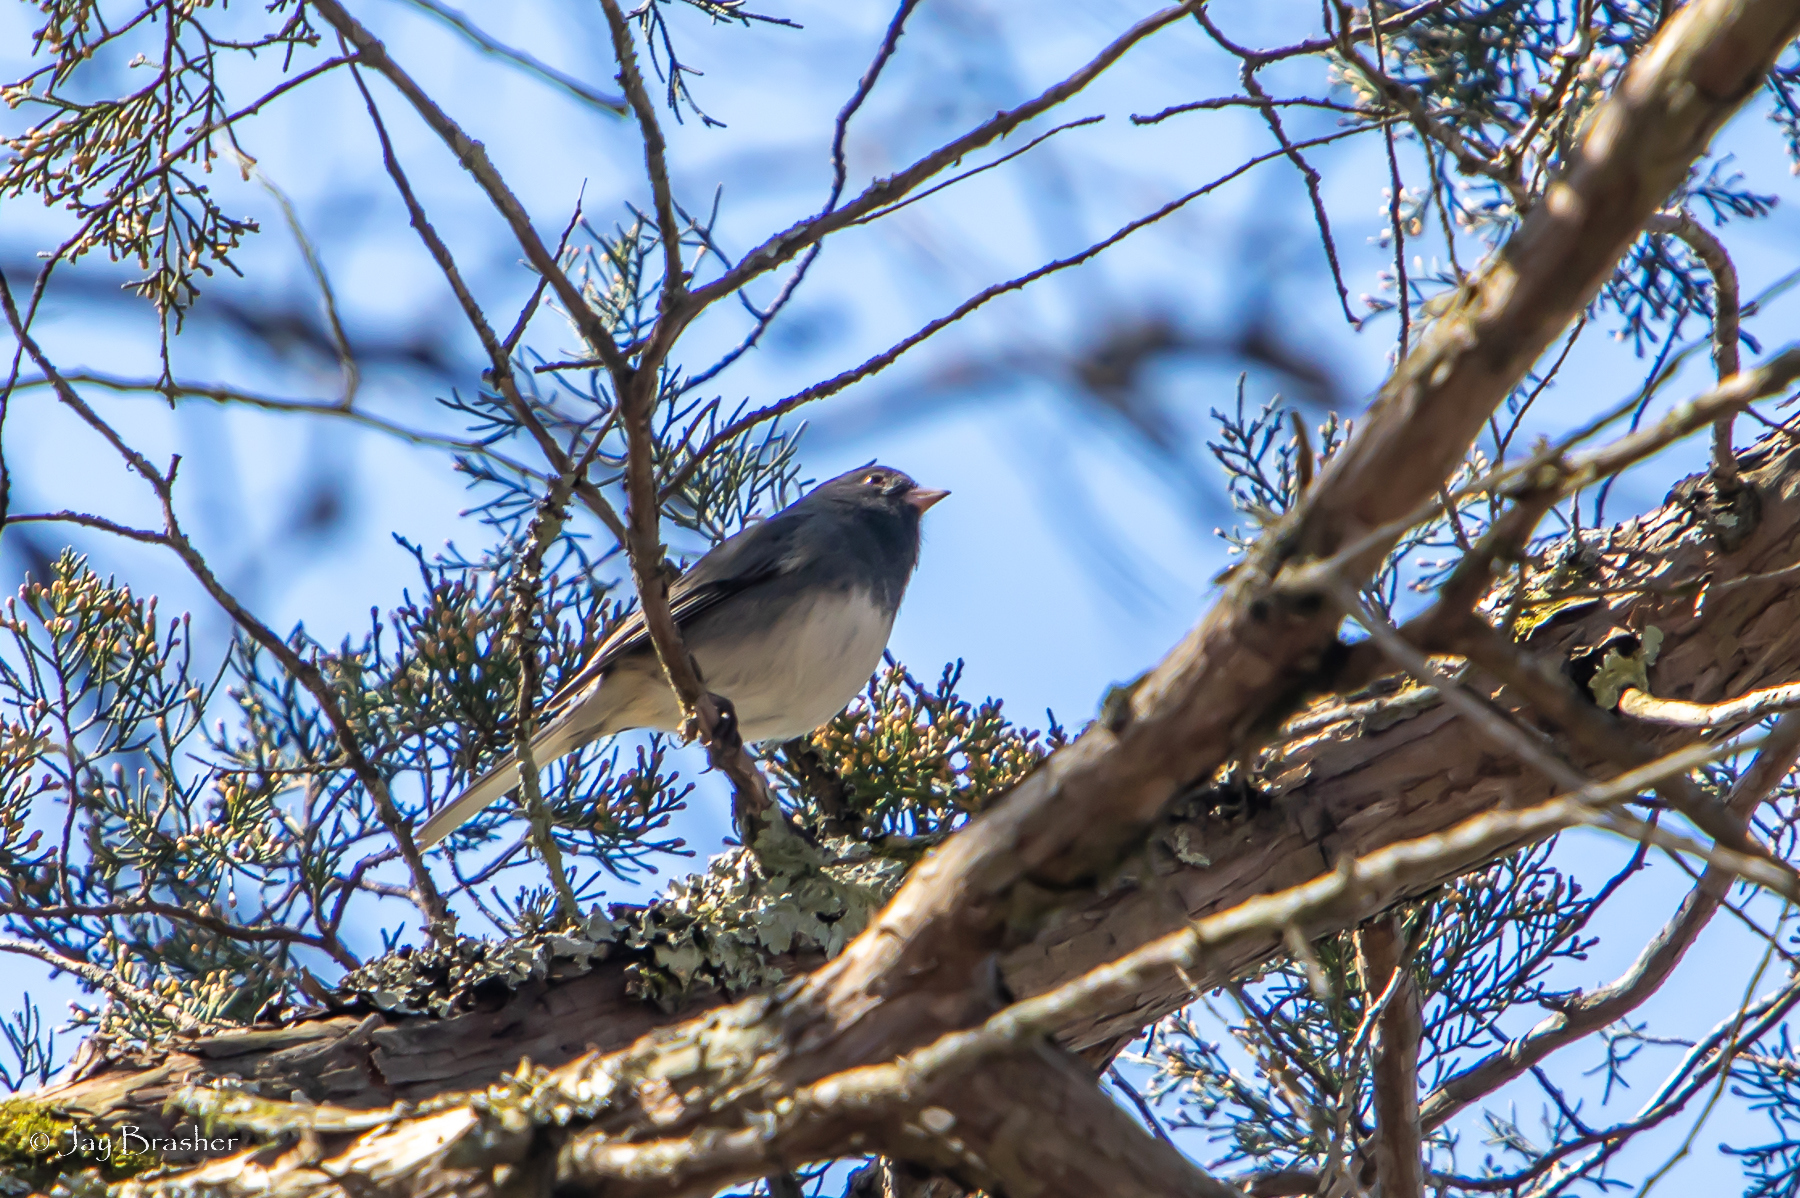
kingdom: Animalia
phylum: Chordata
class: Aves
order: Passeriformes
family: Passerellidae
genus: Junco
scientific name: Junco hyemalis
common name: Dark-eyed junco
